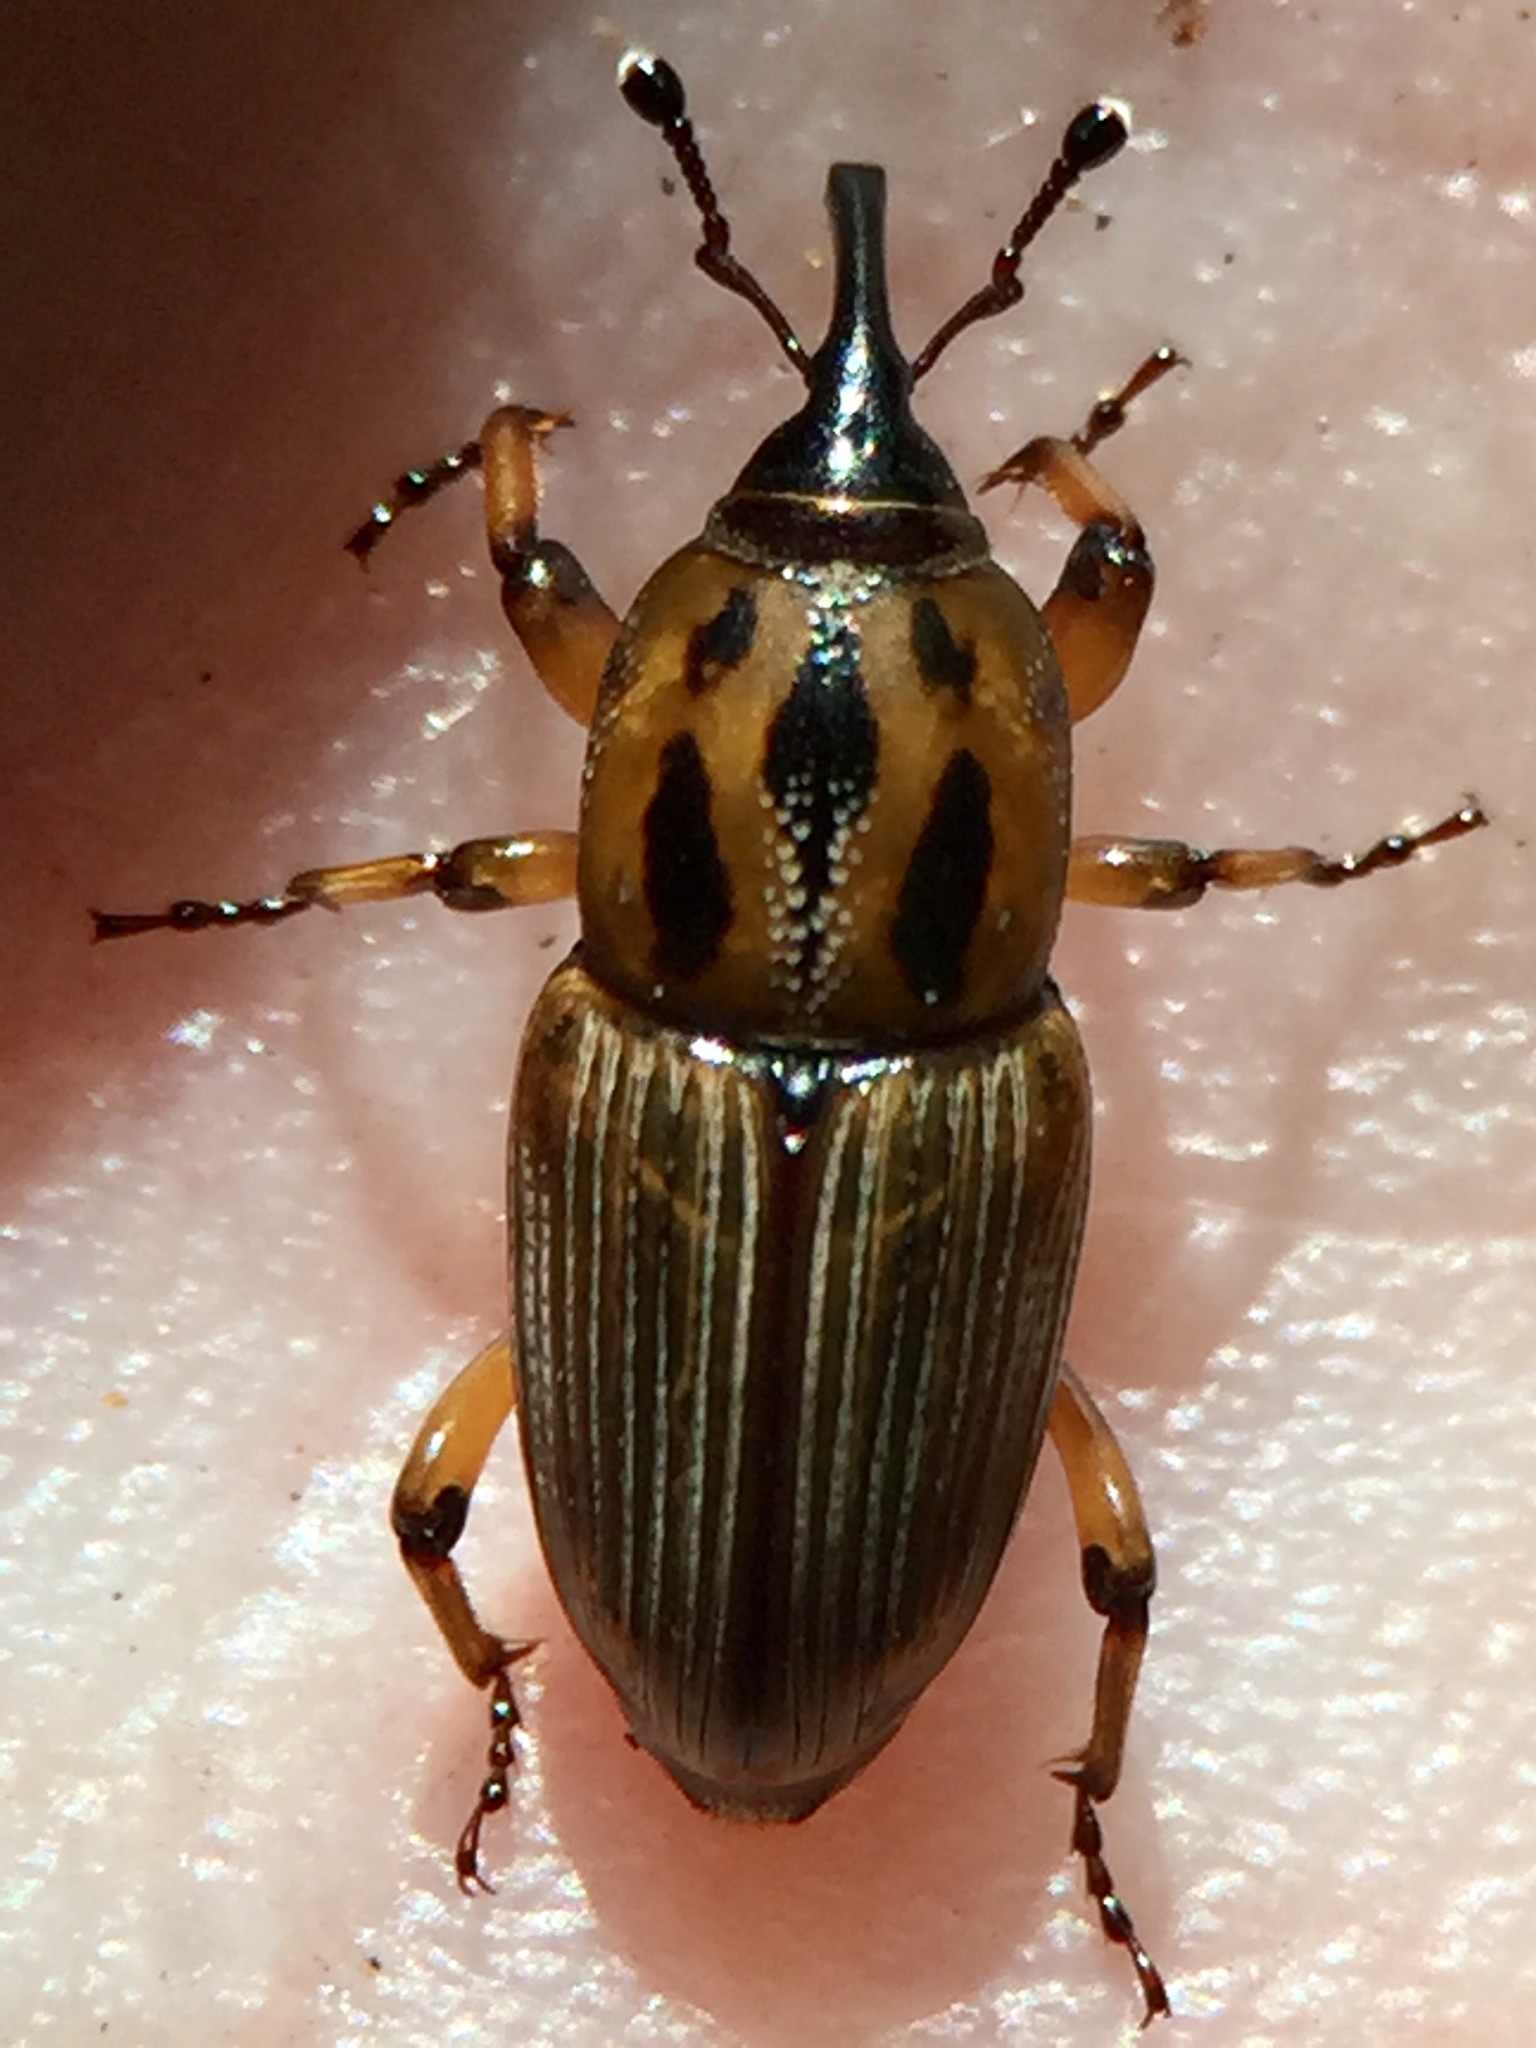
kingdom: Animalia
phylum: Arthropoda
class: Insecta
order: Coleoptera
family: Dryophthoridae
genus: Sphenophorus
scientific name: Sphenophorus brunnipennis
